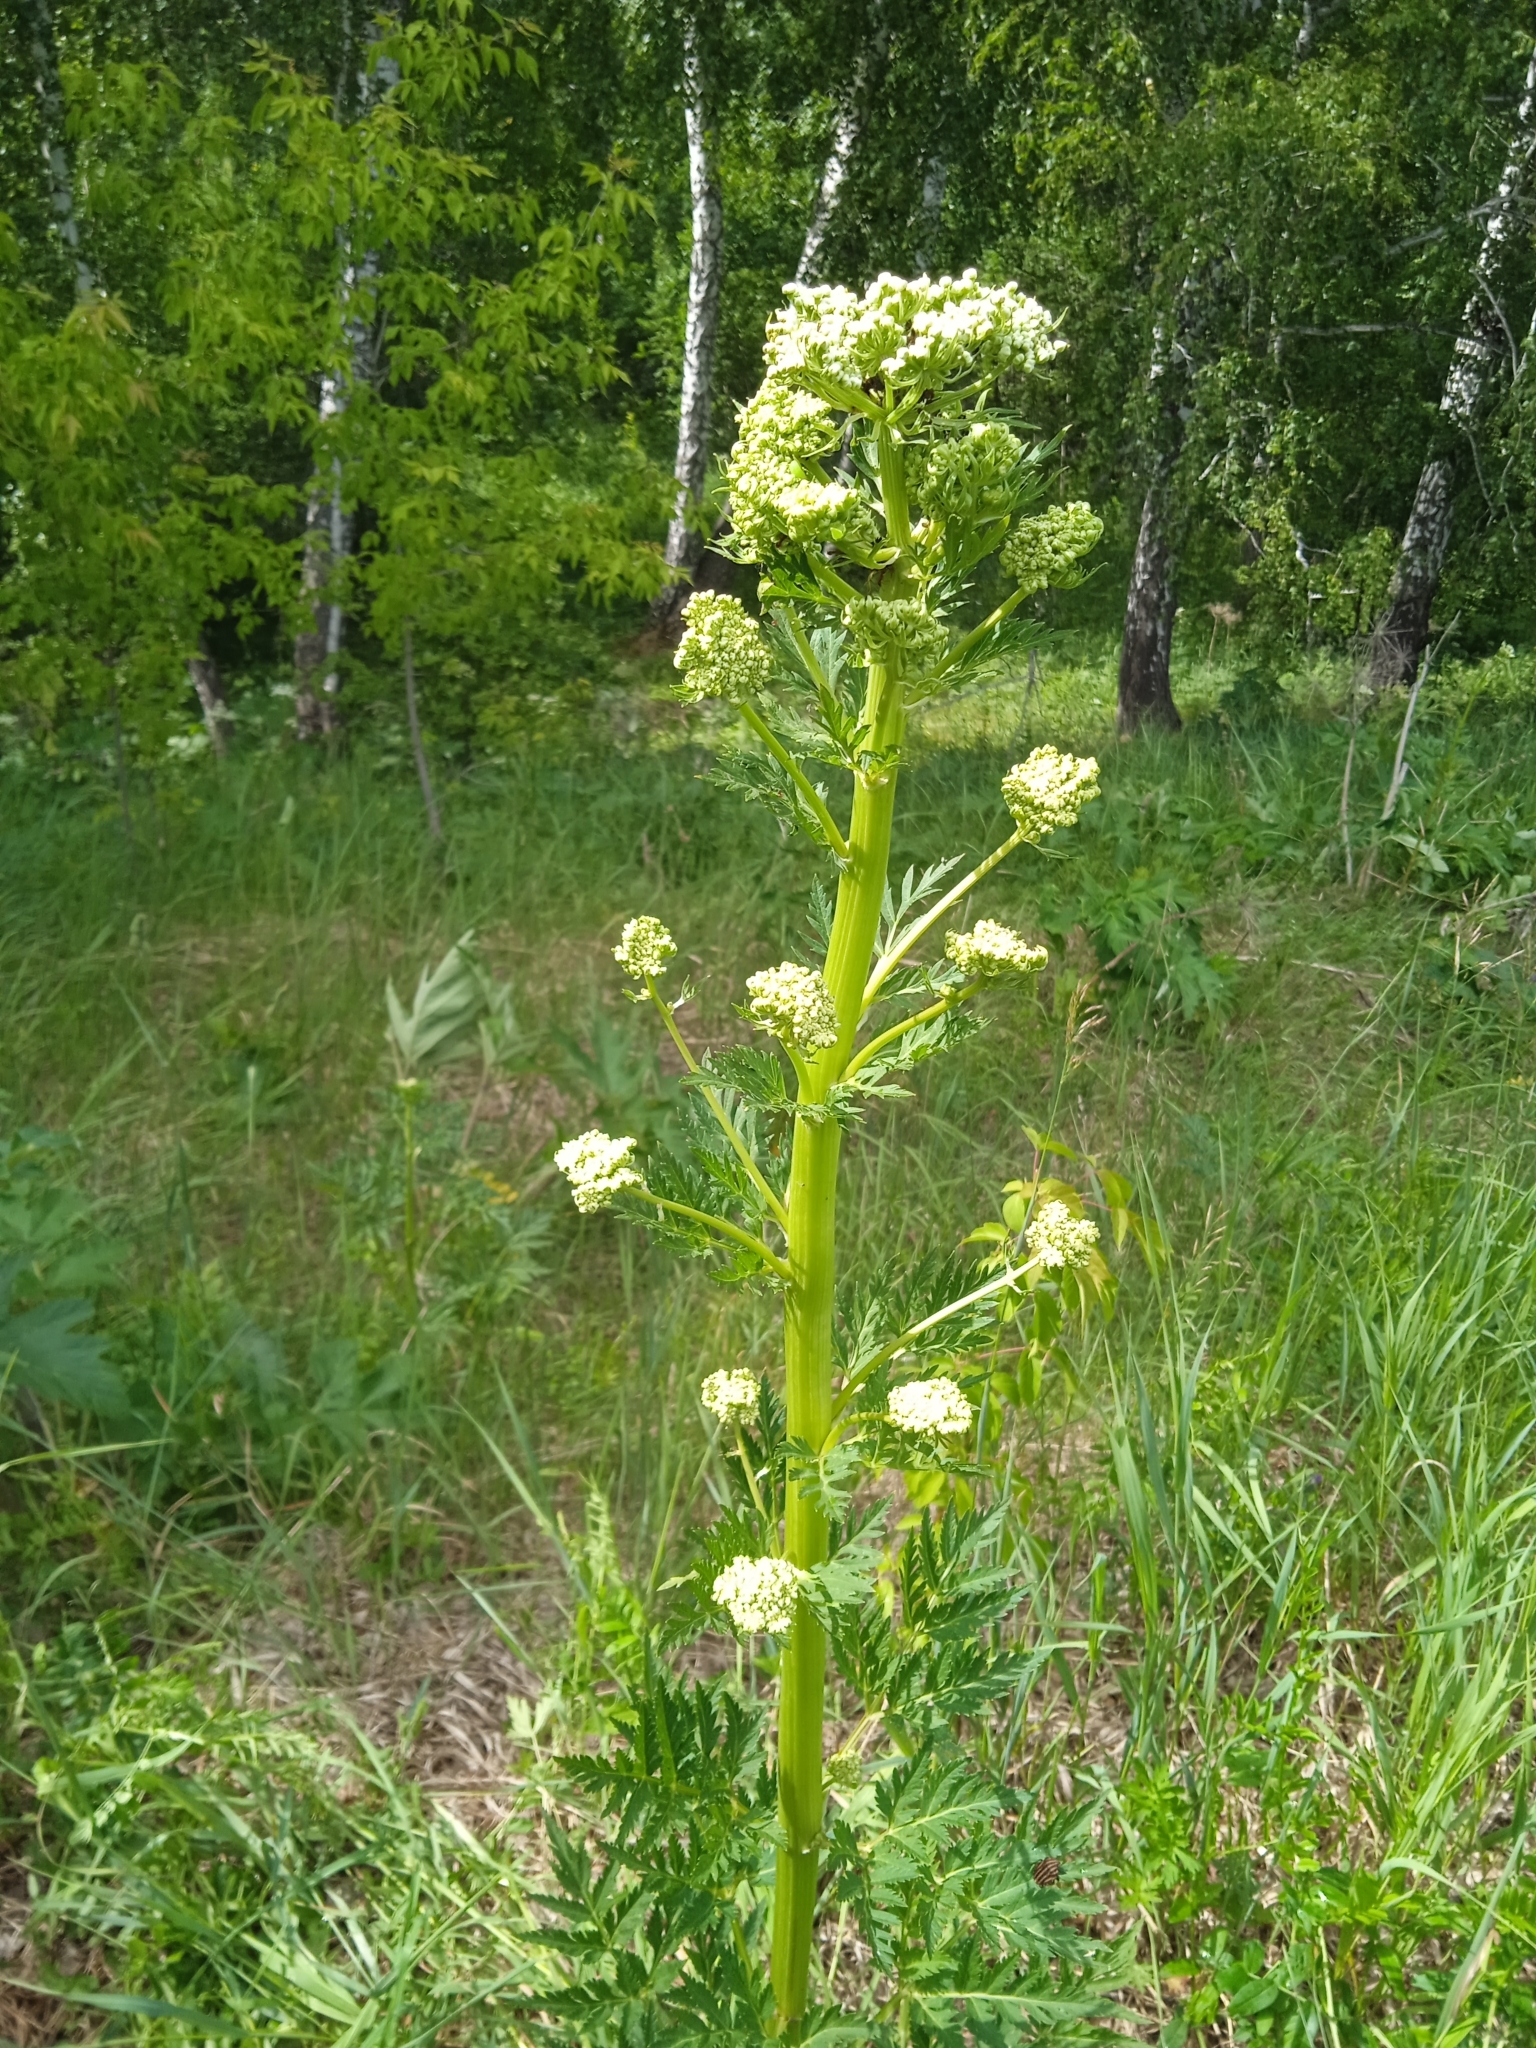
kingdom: Plantae
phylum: Tracheophyta
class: Magnoliopsida
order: Apiales
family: Apiaceae
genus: Pleurospermum
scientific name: Pleurospermum uralense
